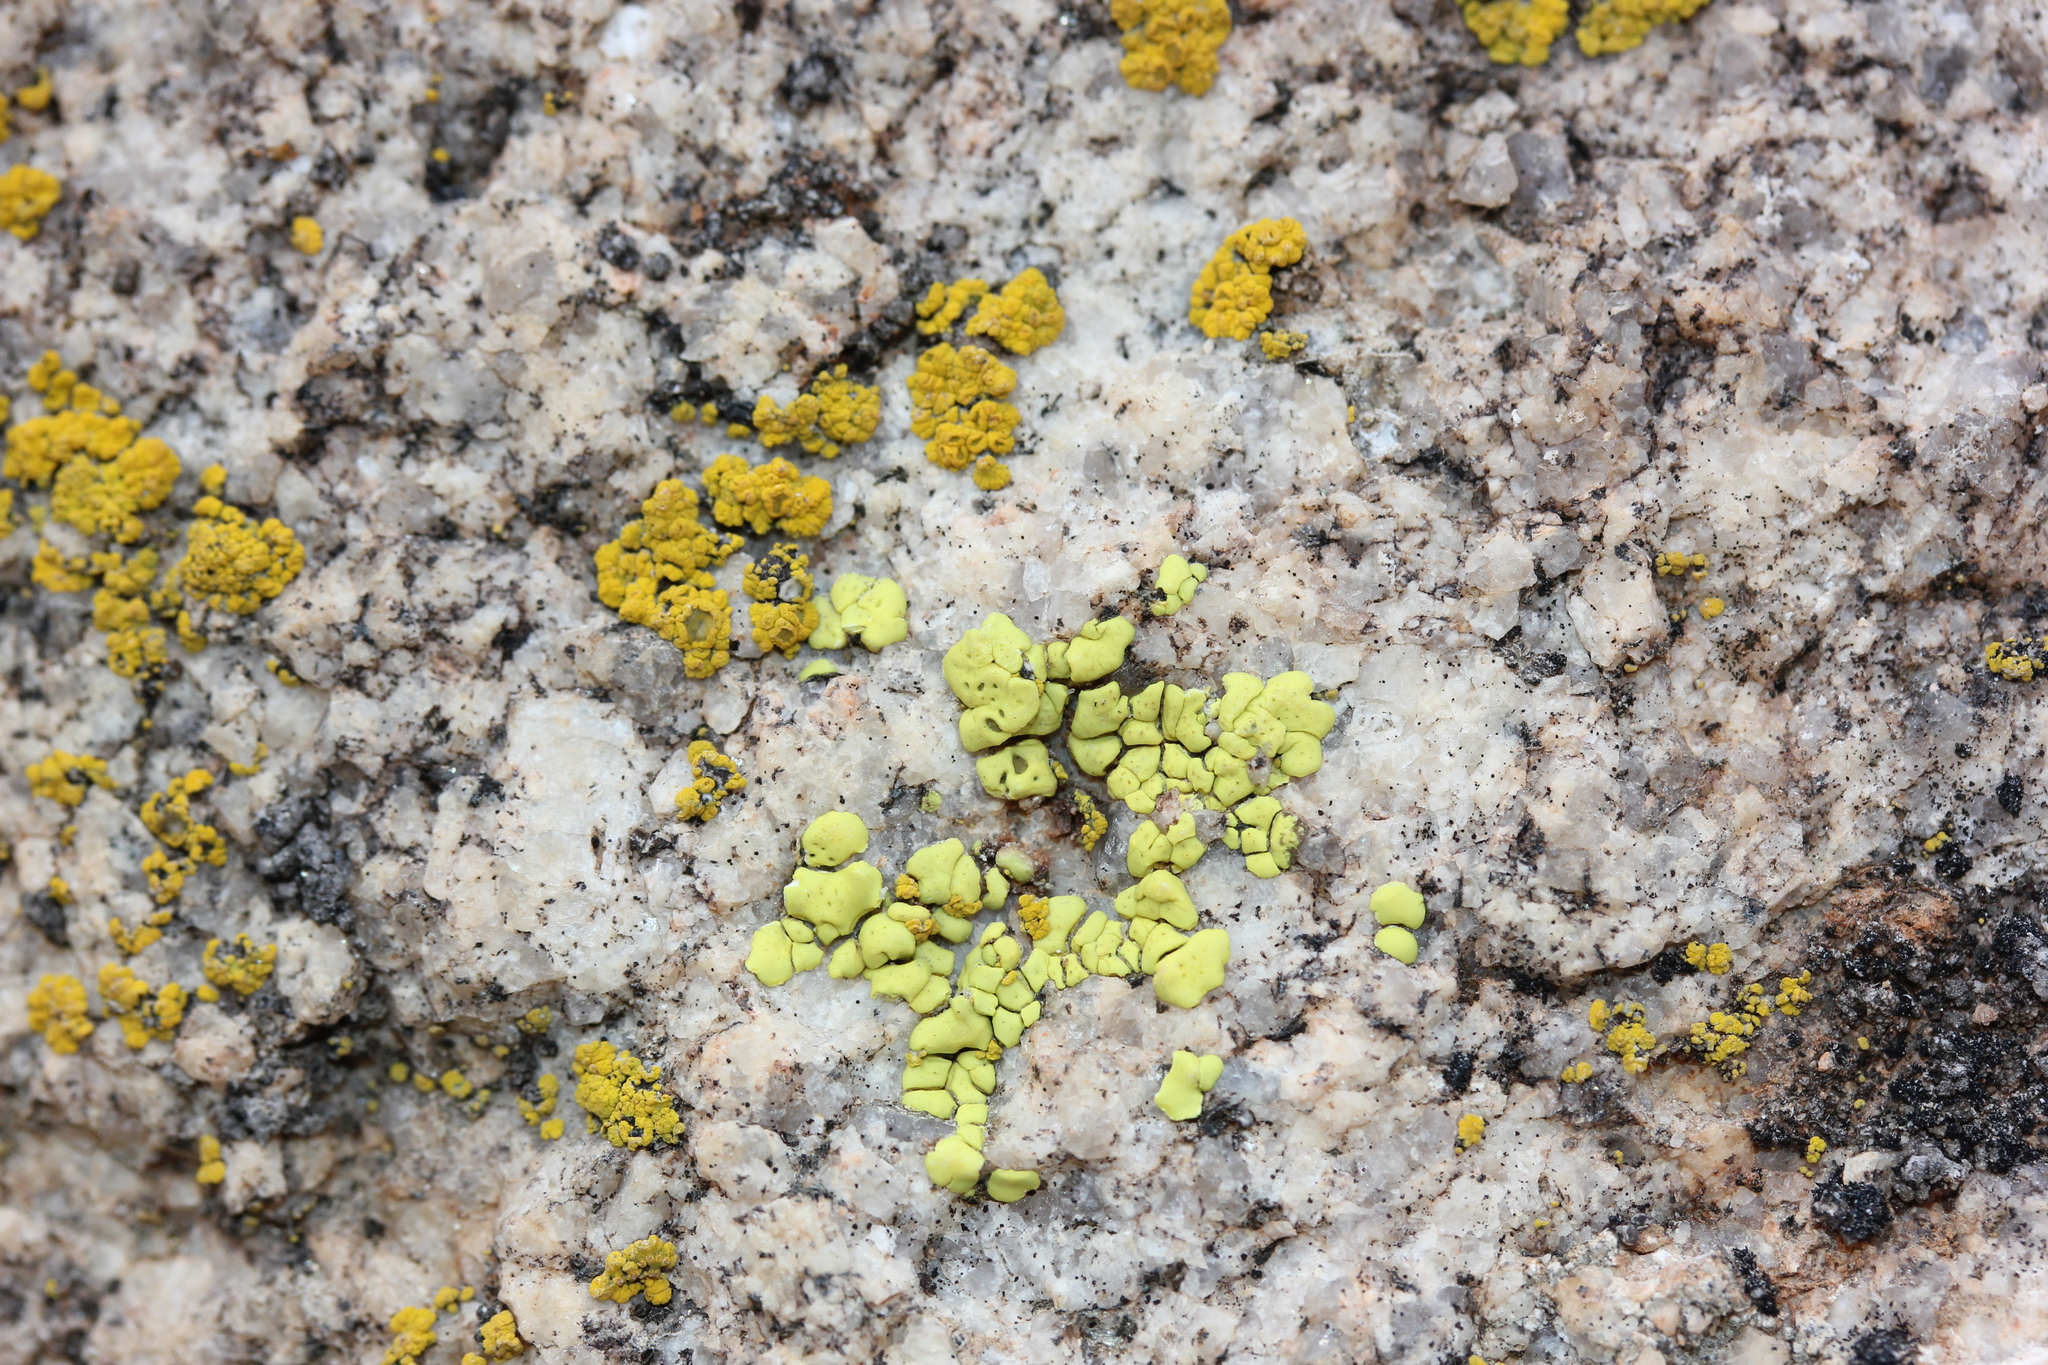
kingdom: Fungi
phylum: Ascomycota
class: Lecanoromycetes
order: Acarosporales
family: Acarosporaceae
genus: Acarospora
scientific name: Acarospora socialis
